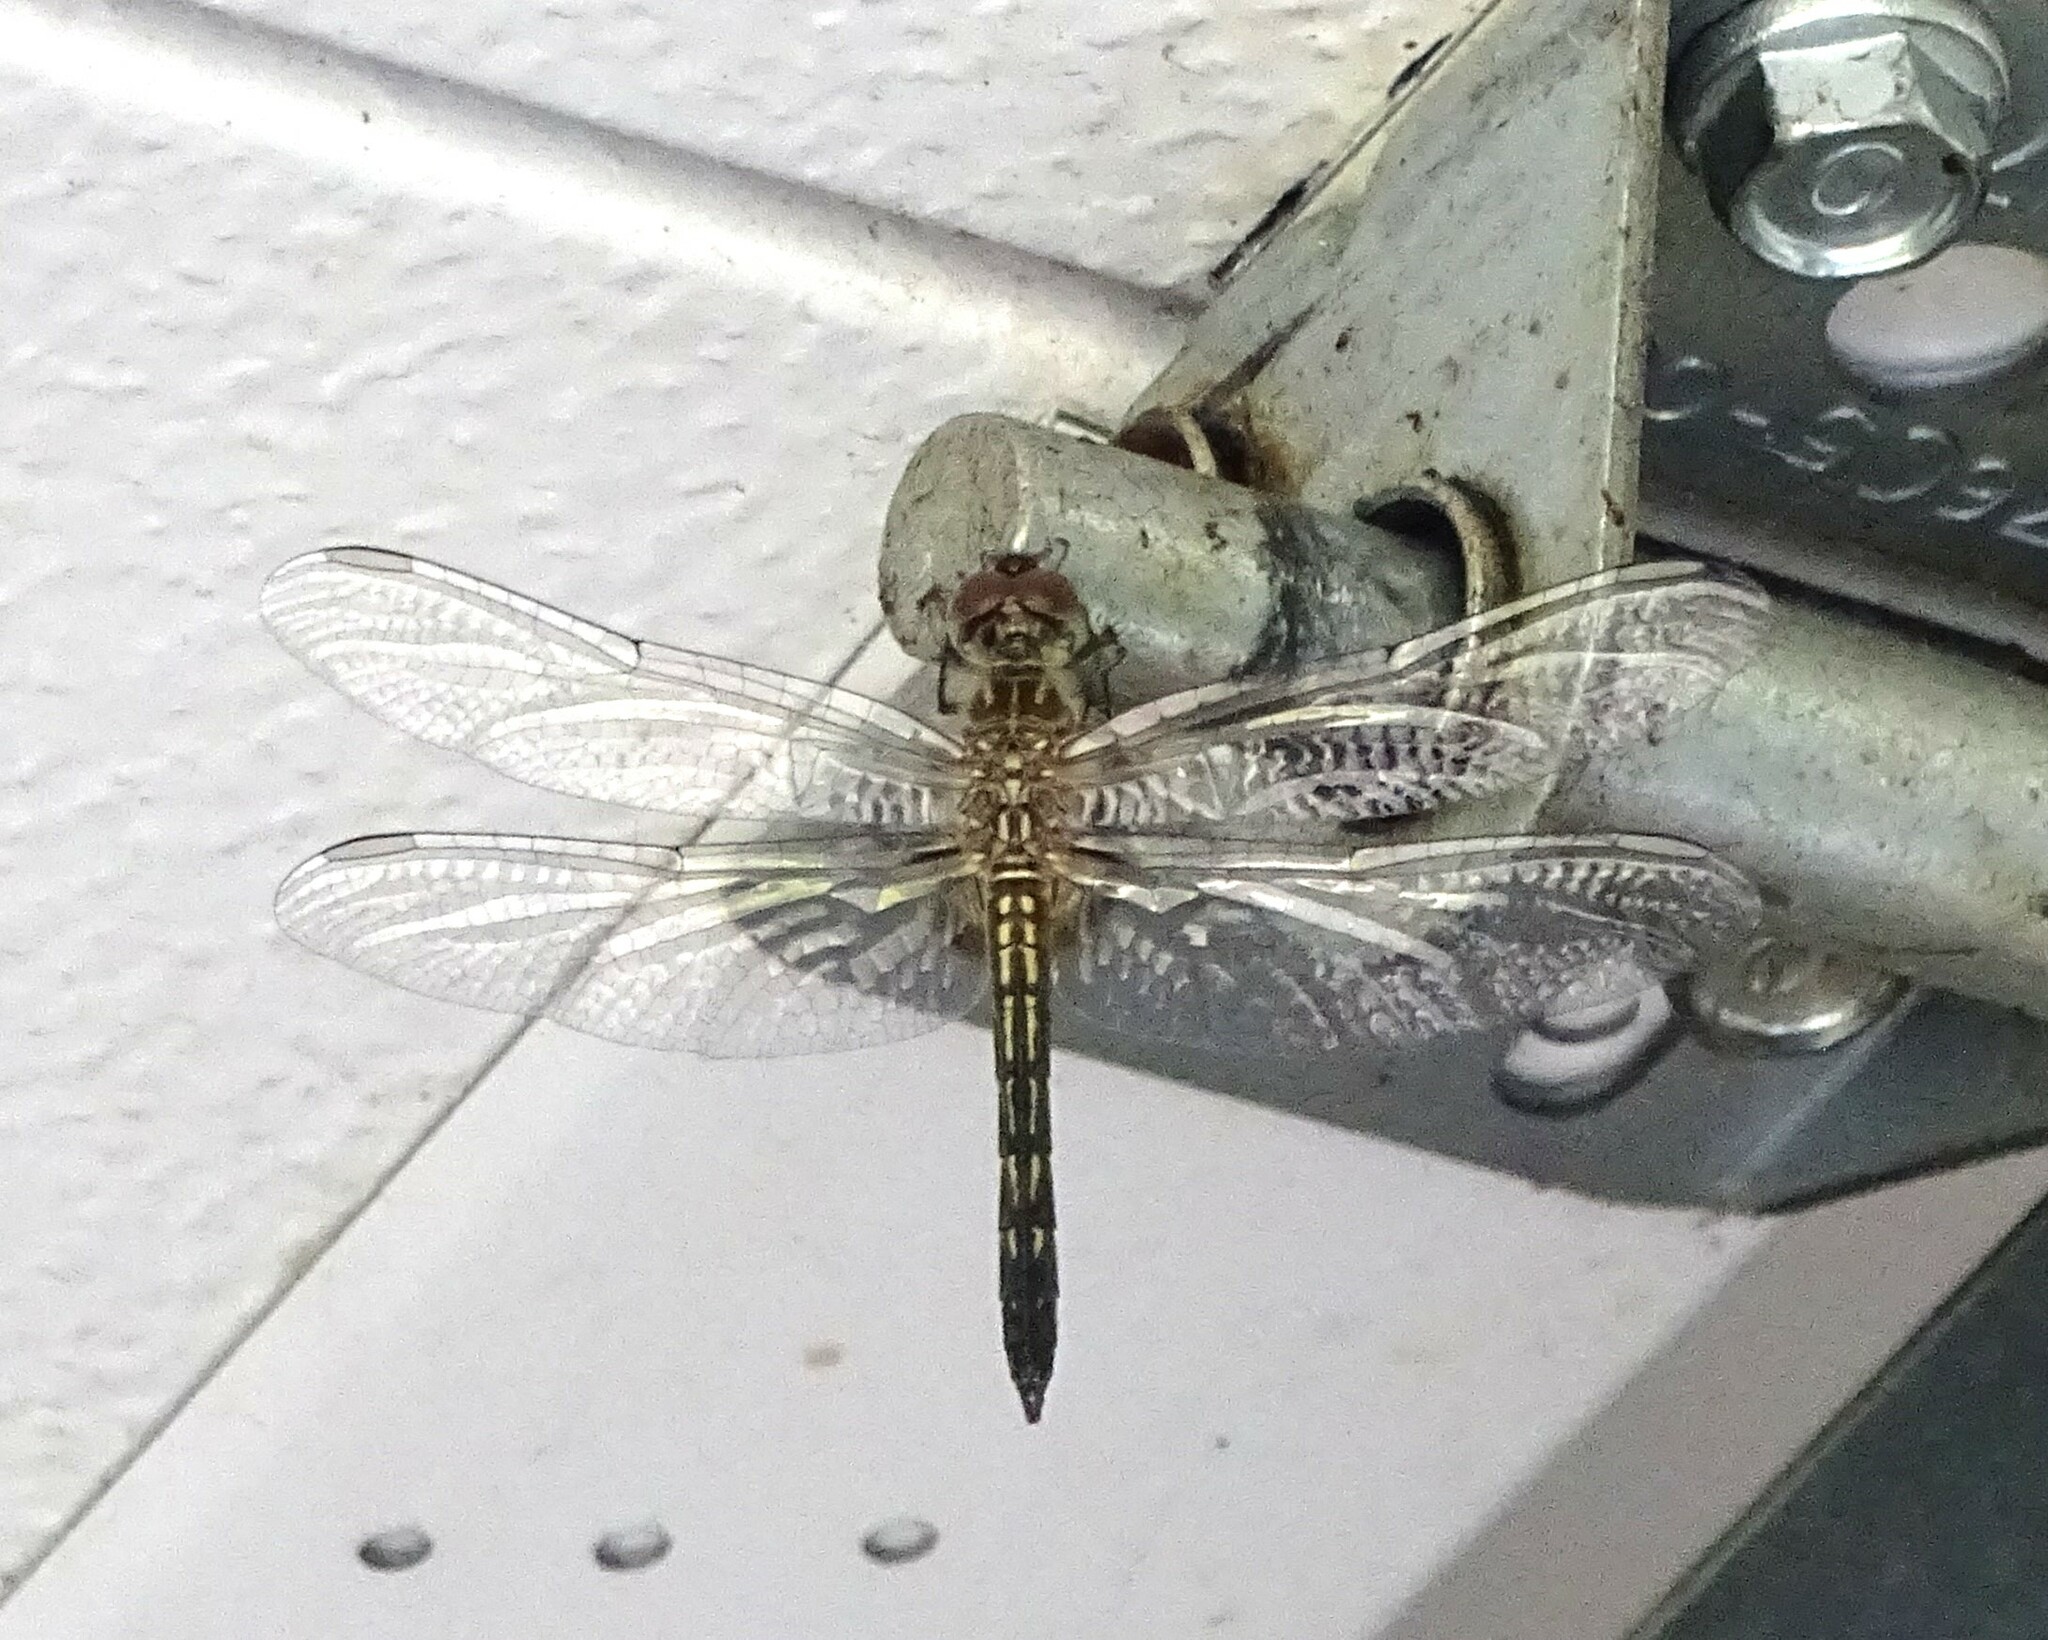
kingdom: Animalia
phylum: Arthropoda
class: Insecta
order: Odonata
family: Libellulidae
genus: Pachydiplax
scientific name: Pachydiplax longipennis
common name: Blue dasher
